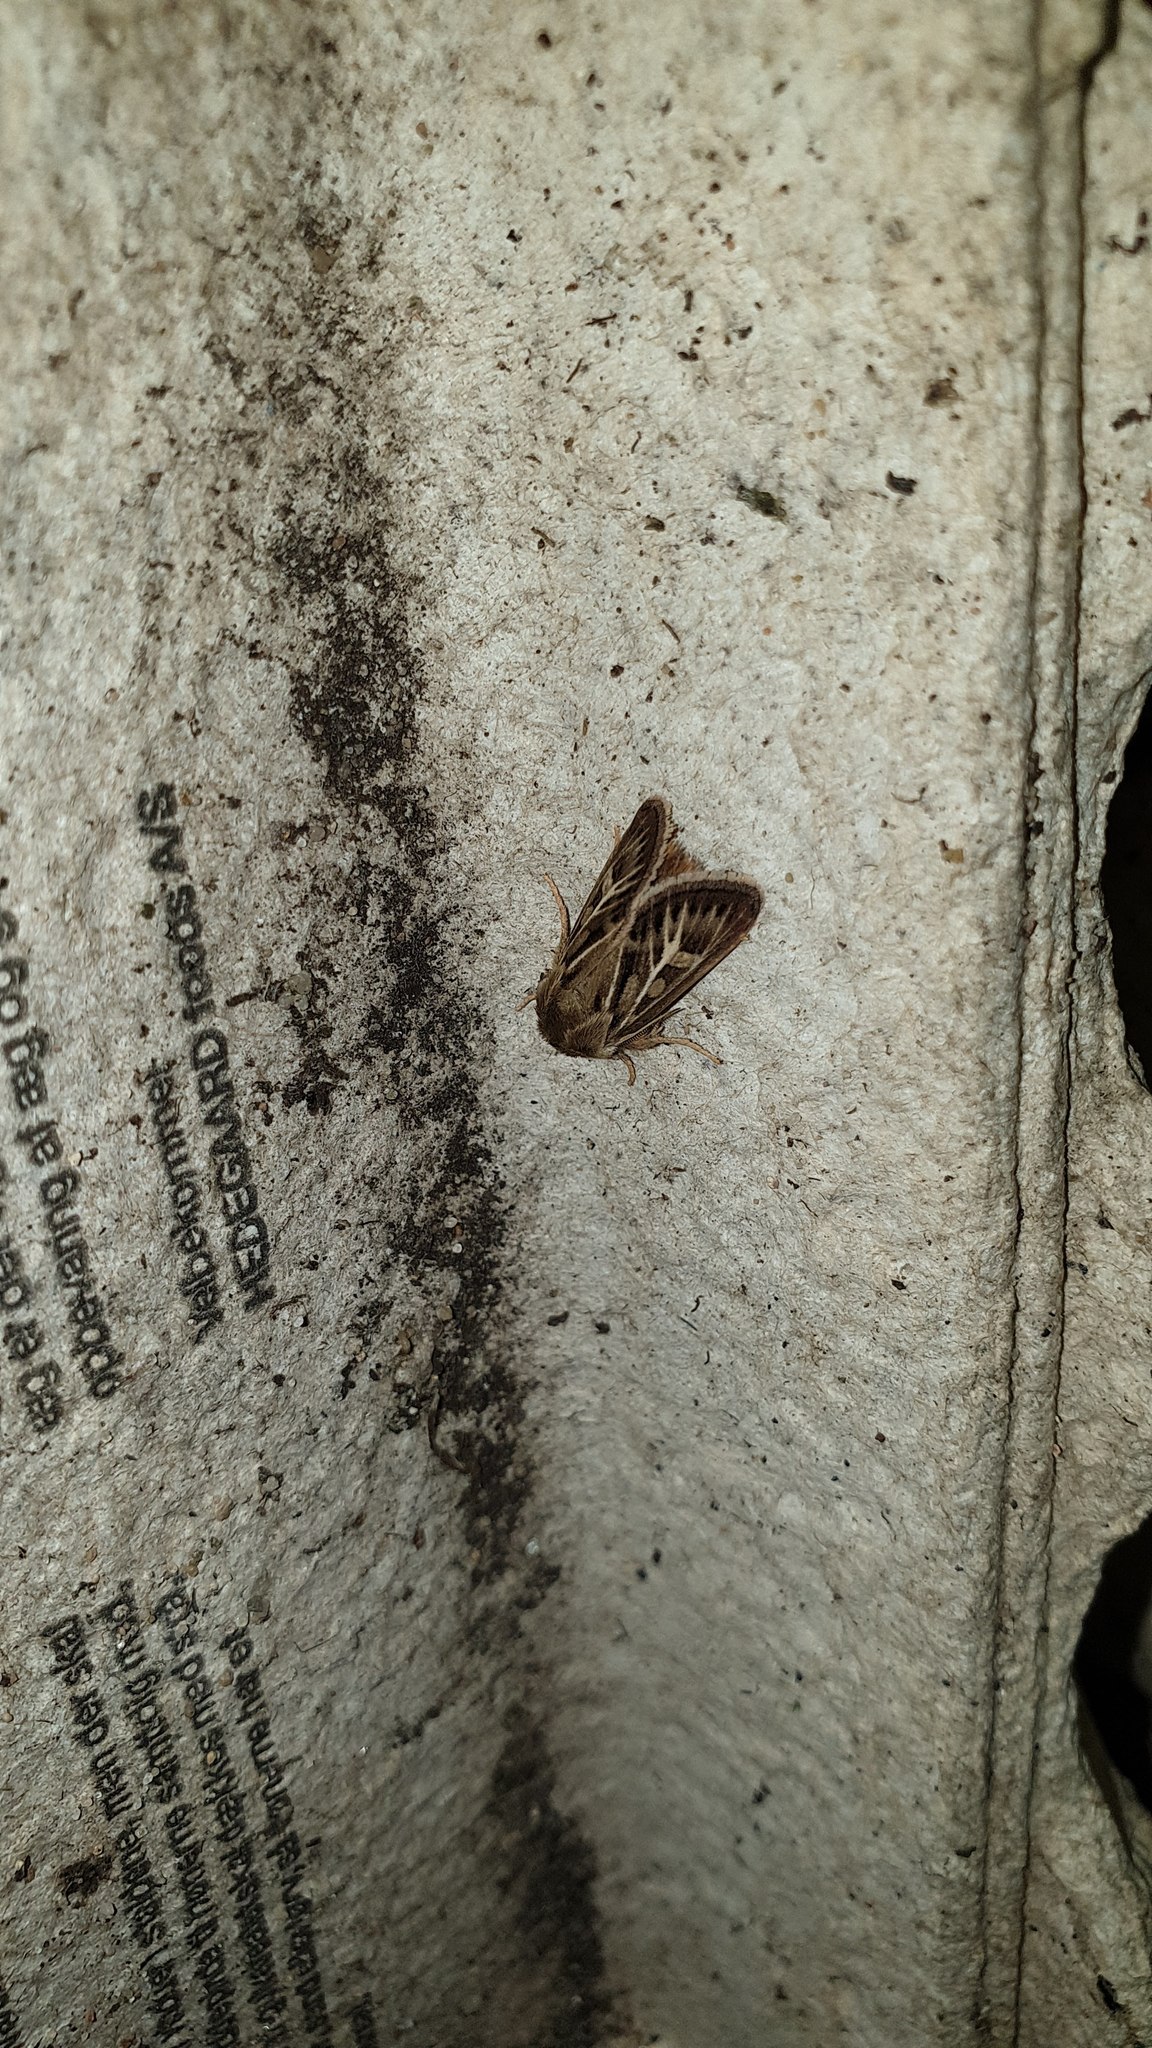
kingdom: Animalia
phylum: Arthropoda
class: Insecta
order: Lepidoptera
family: Noctuidae
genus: Cerapteryx
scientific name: Cerapteryx graminis
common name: Antler moth
